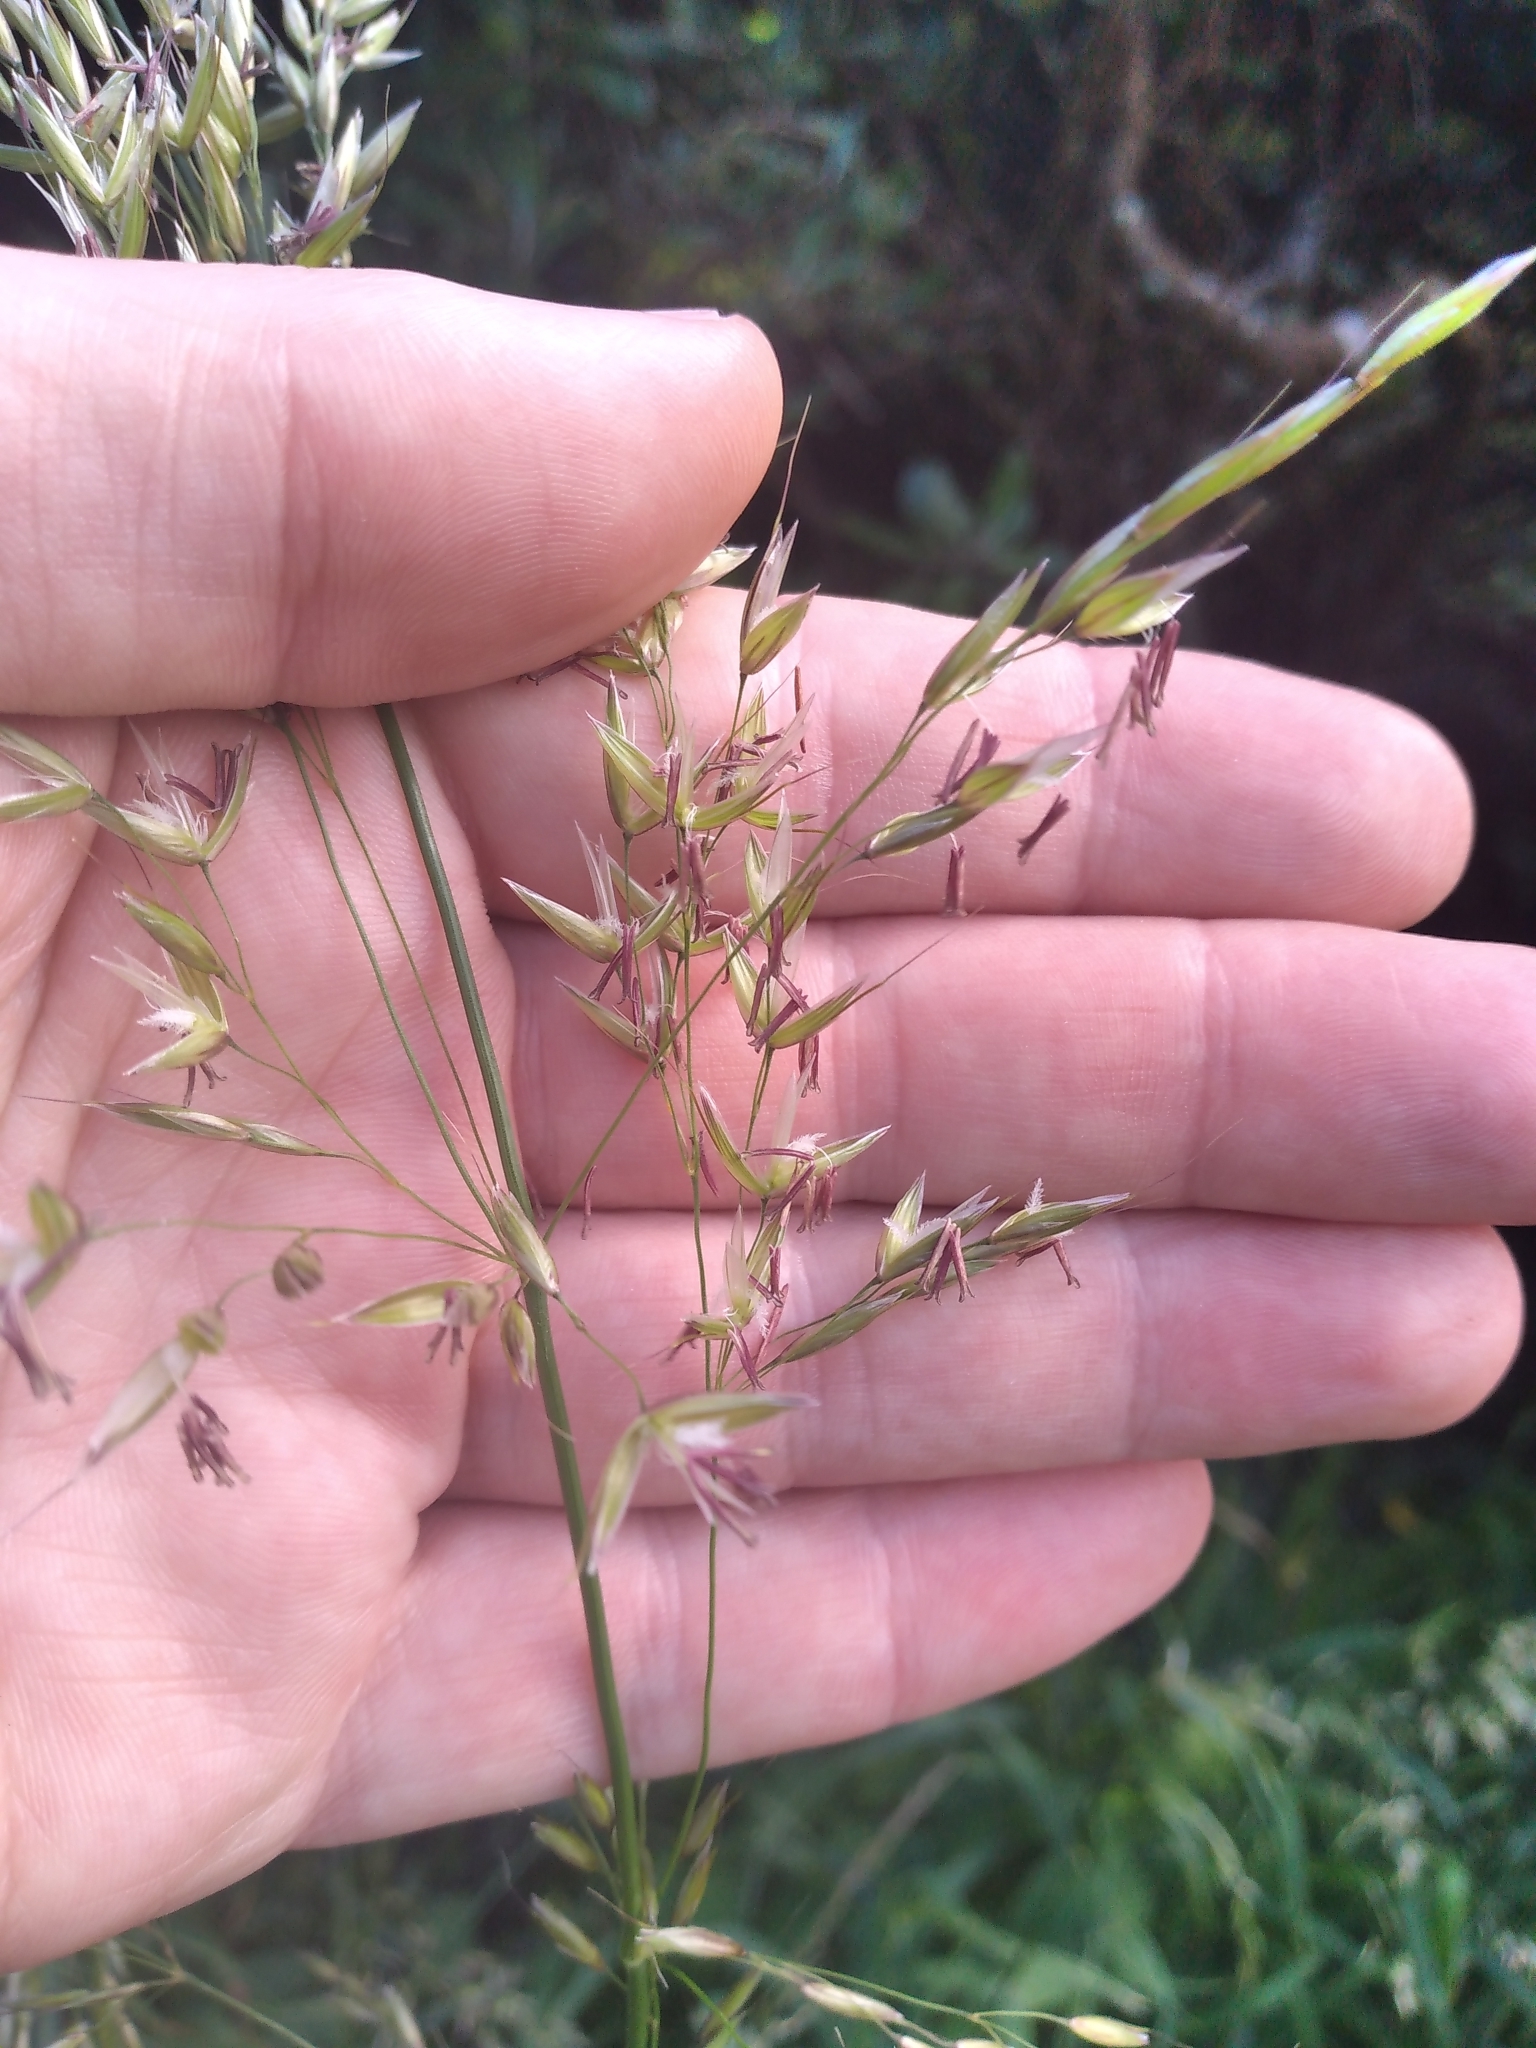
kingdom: Plantae
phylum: Tracheophyta
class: Liliopsida
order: Poales
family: Poaceae
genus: Arrhenatherum
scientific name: Arrhenatherum elatius
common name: Tall oatgrass
